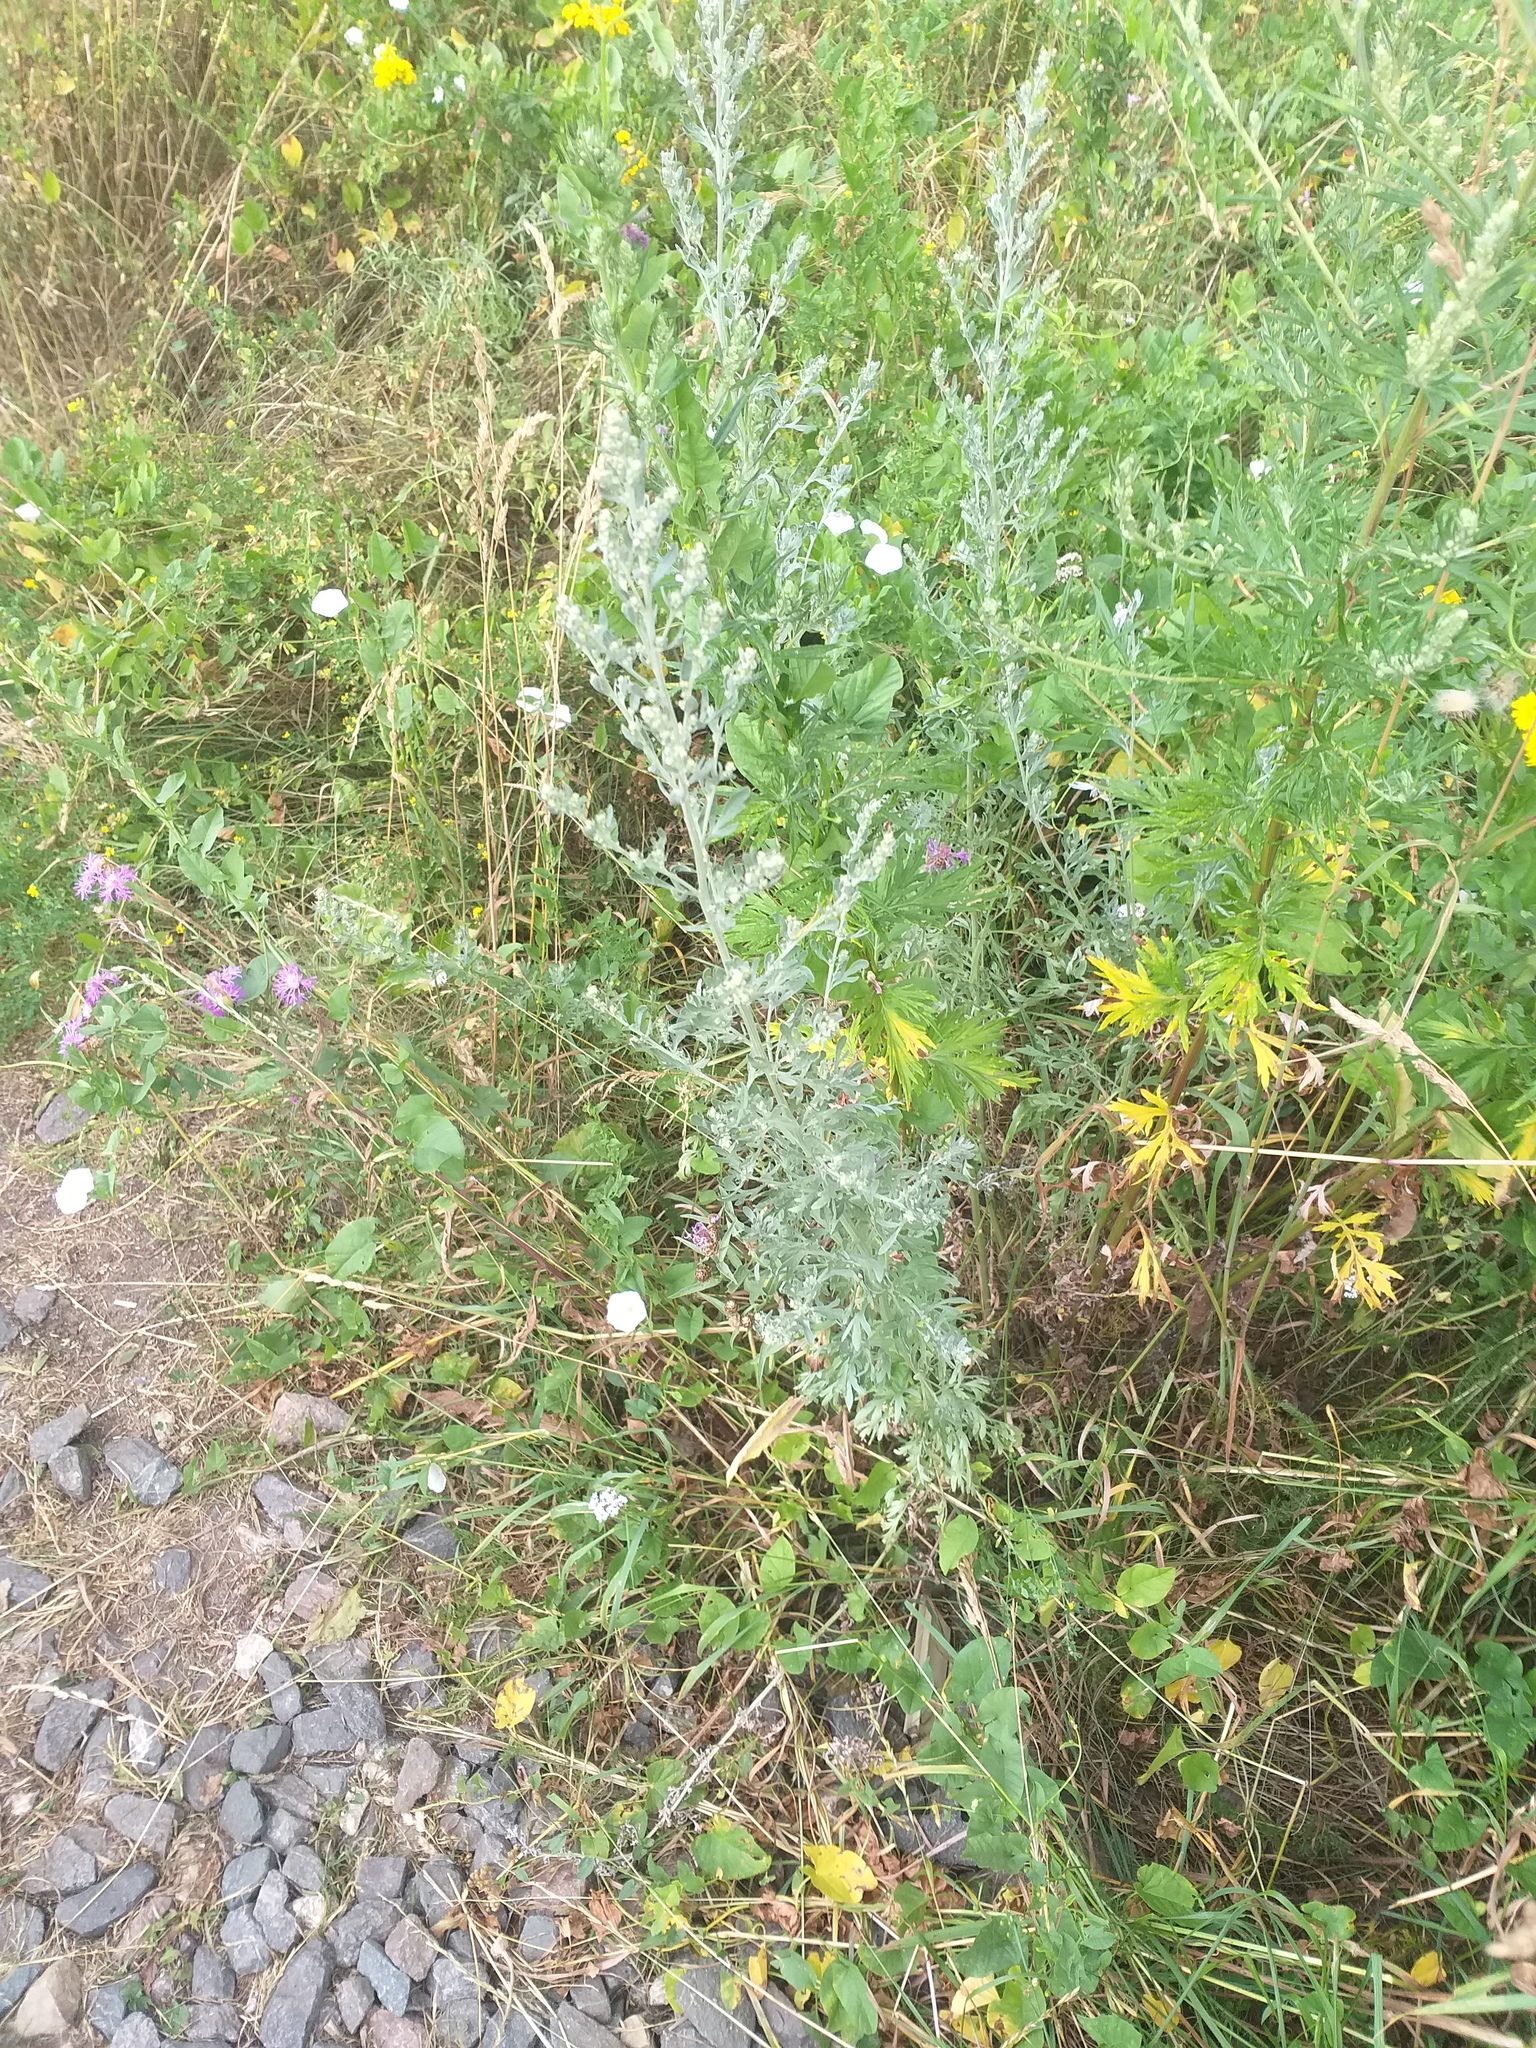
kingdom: Plantae
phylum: Tracheophyta
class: Magnoliopsida
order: Asterales
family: Asteraceae
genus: Artemisia
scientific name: Artemisia absinthium
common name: Wormwood
